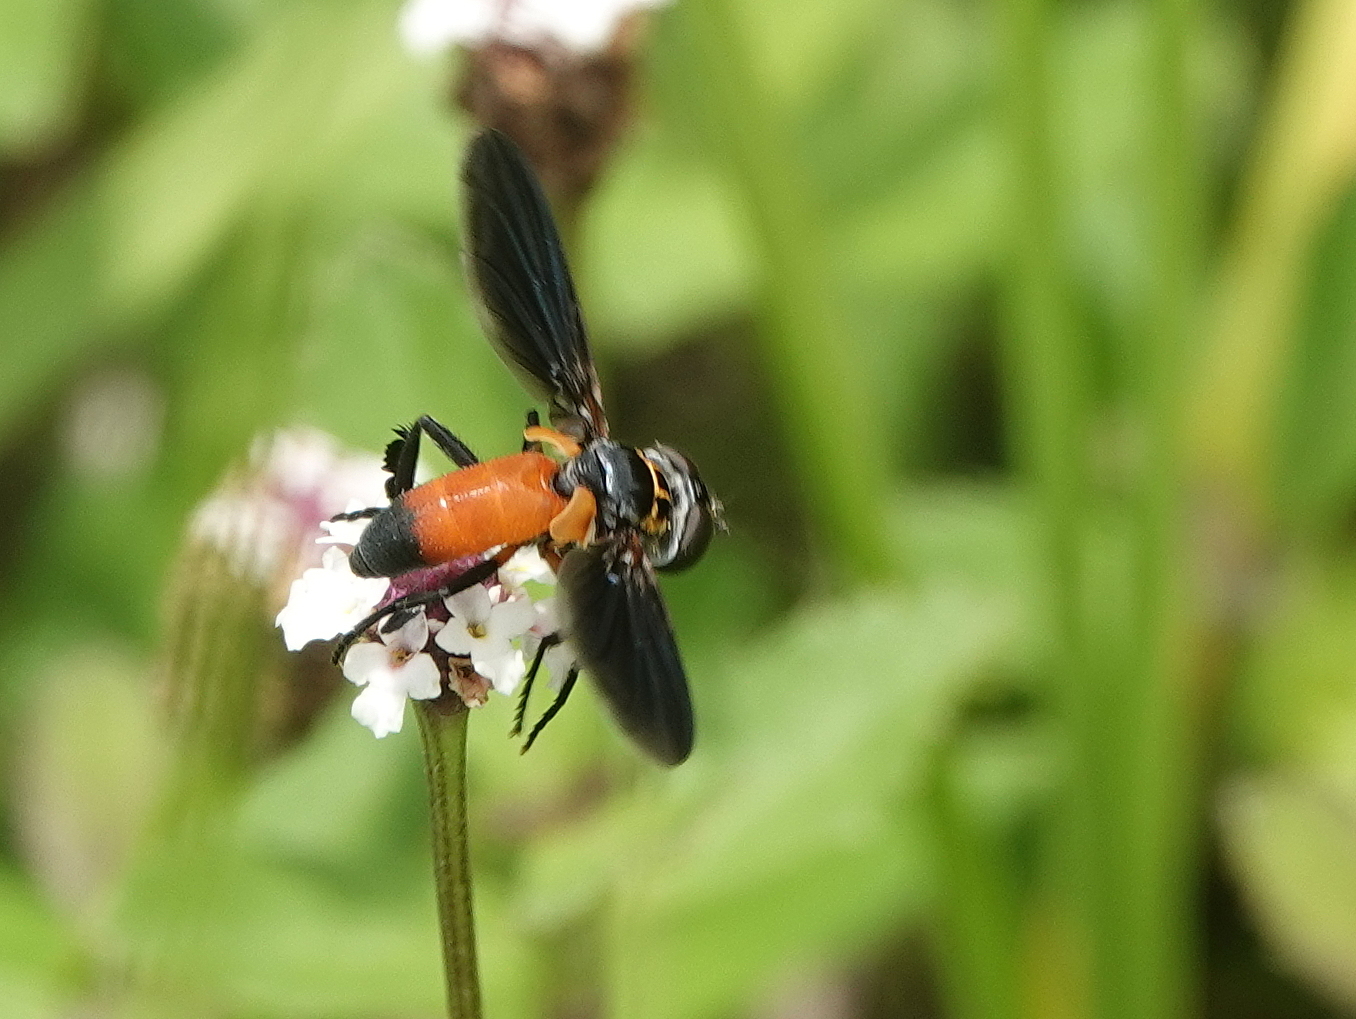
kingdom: Animalia
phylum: Arthropoda
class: Insecta
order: Diptera
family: Tachinidae
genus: Trichopoda
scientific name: Trichopoda pennipes
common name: Tachinid fly
